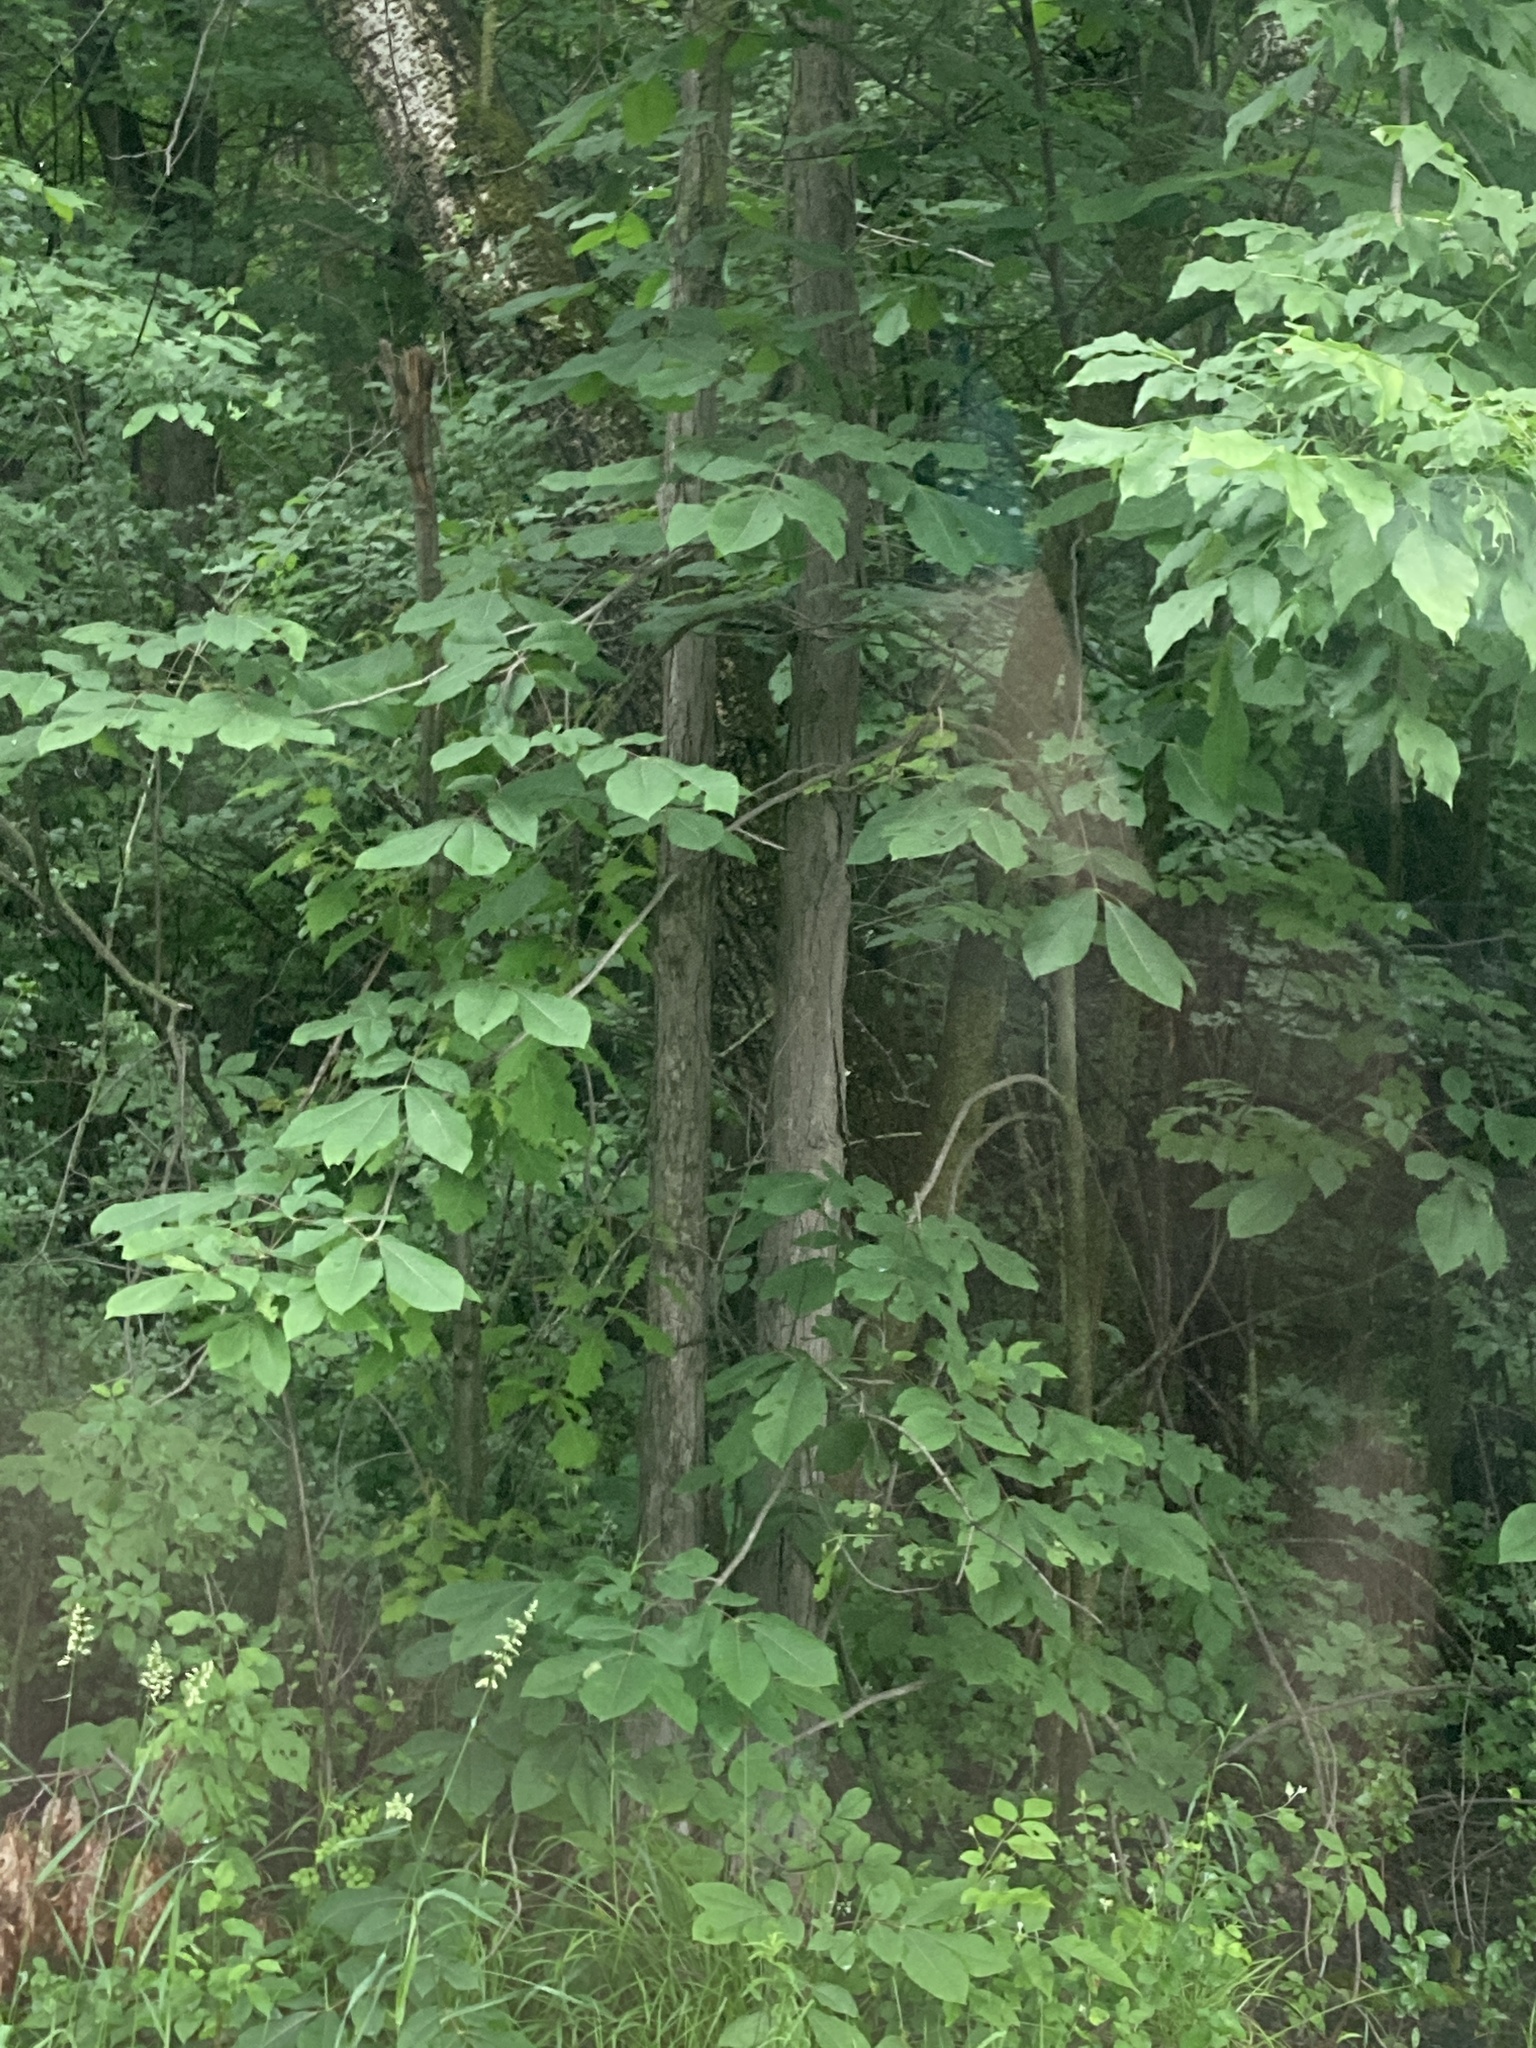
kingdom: Plantae
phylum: Tracheophyta
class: Magnoliopsida
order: Fagales
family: Juglandaceae
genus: Carya
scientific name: Carya ovata
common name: Shagbark hickory
